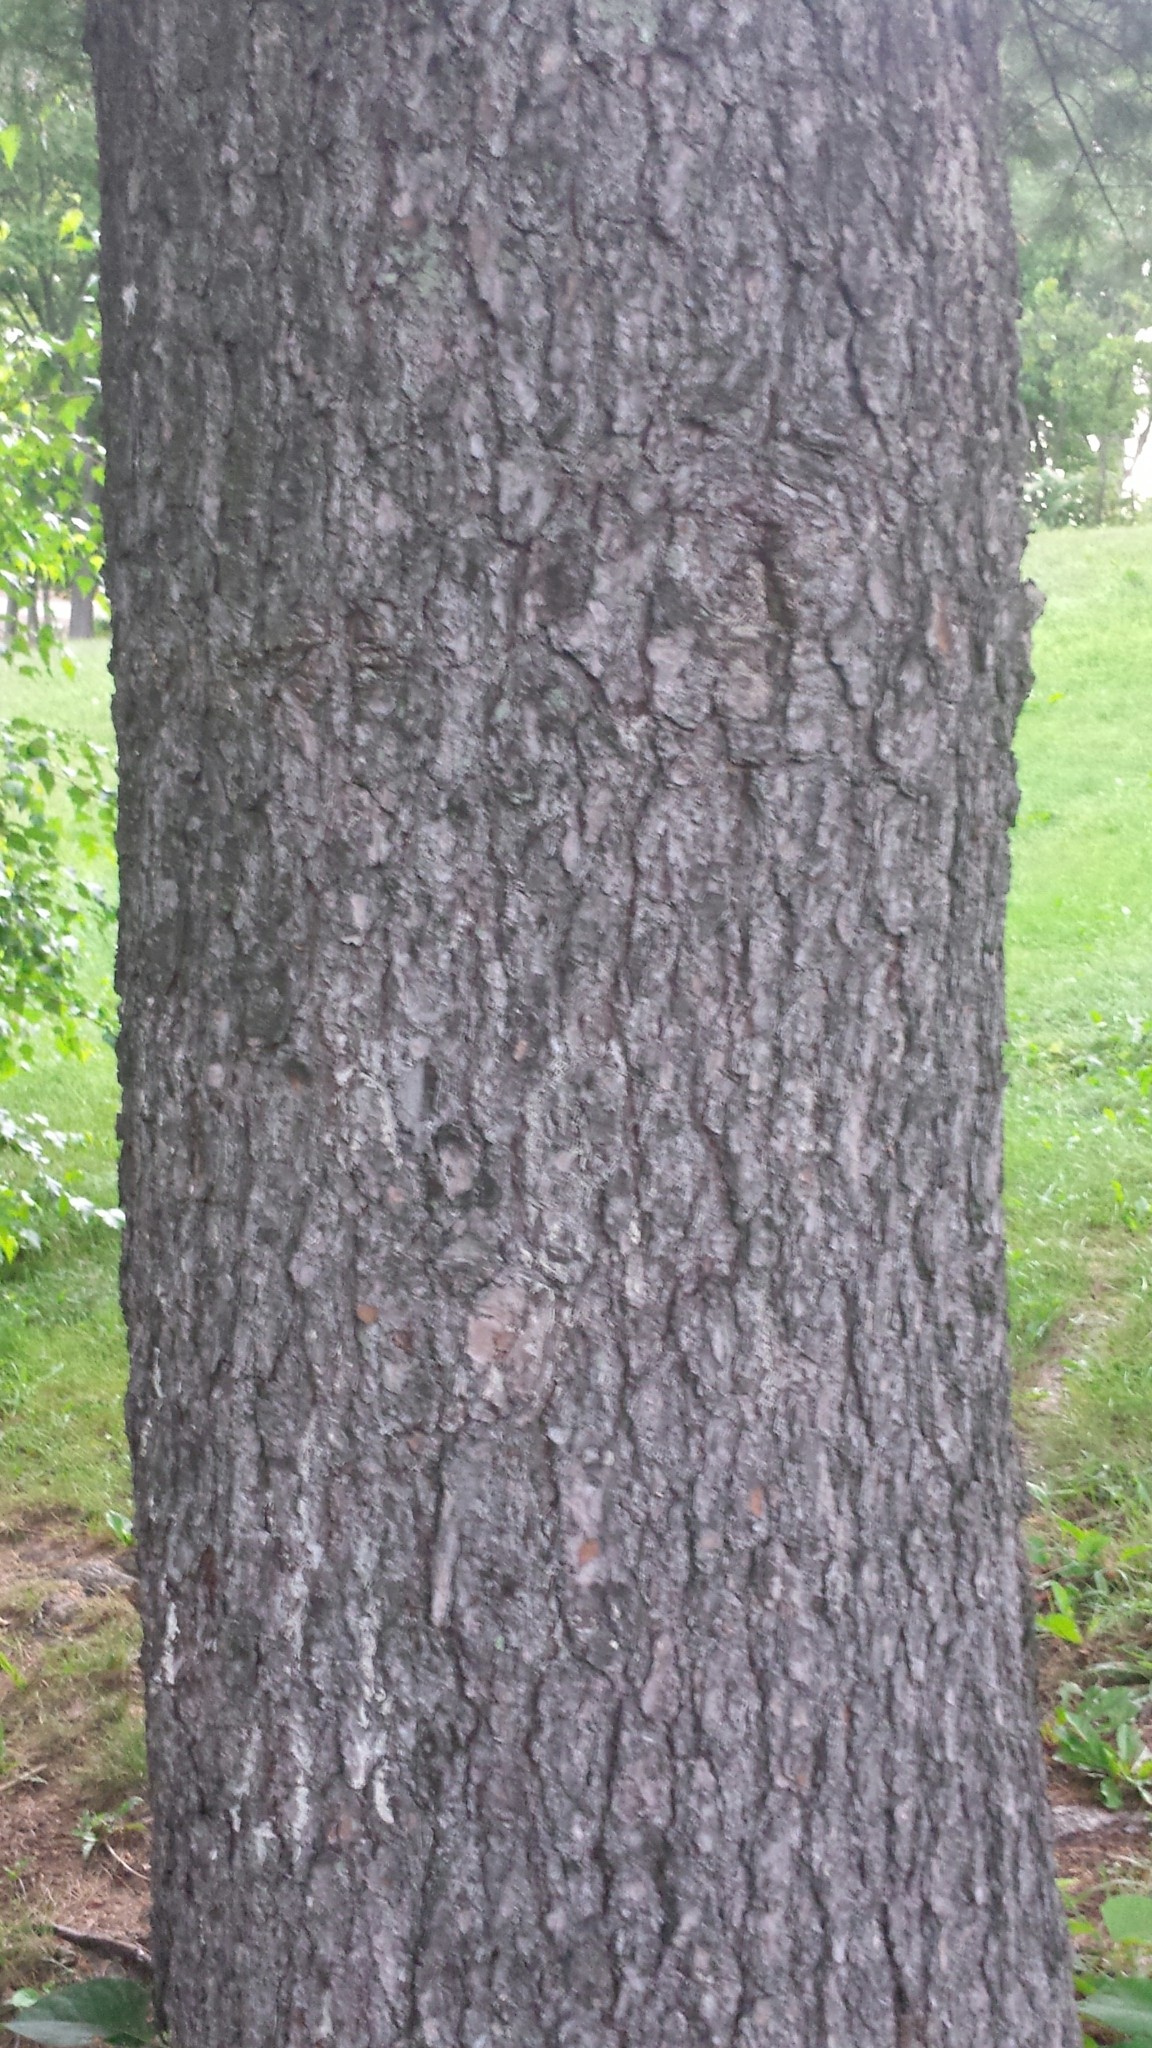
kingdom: Plantae
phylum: Tracheophyta
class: Pinopsida
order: Pinales
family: Pinaceae
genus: Pinus
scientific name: Pinus strobus
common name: Weymouth pine
